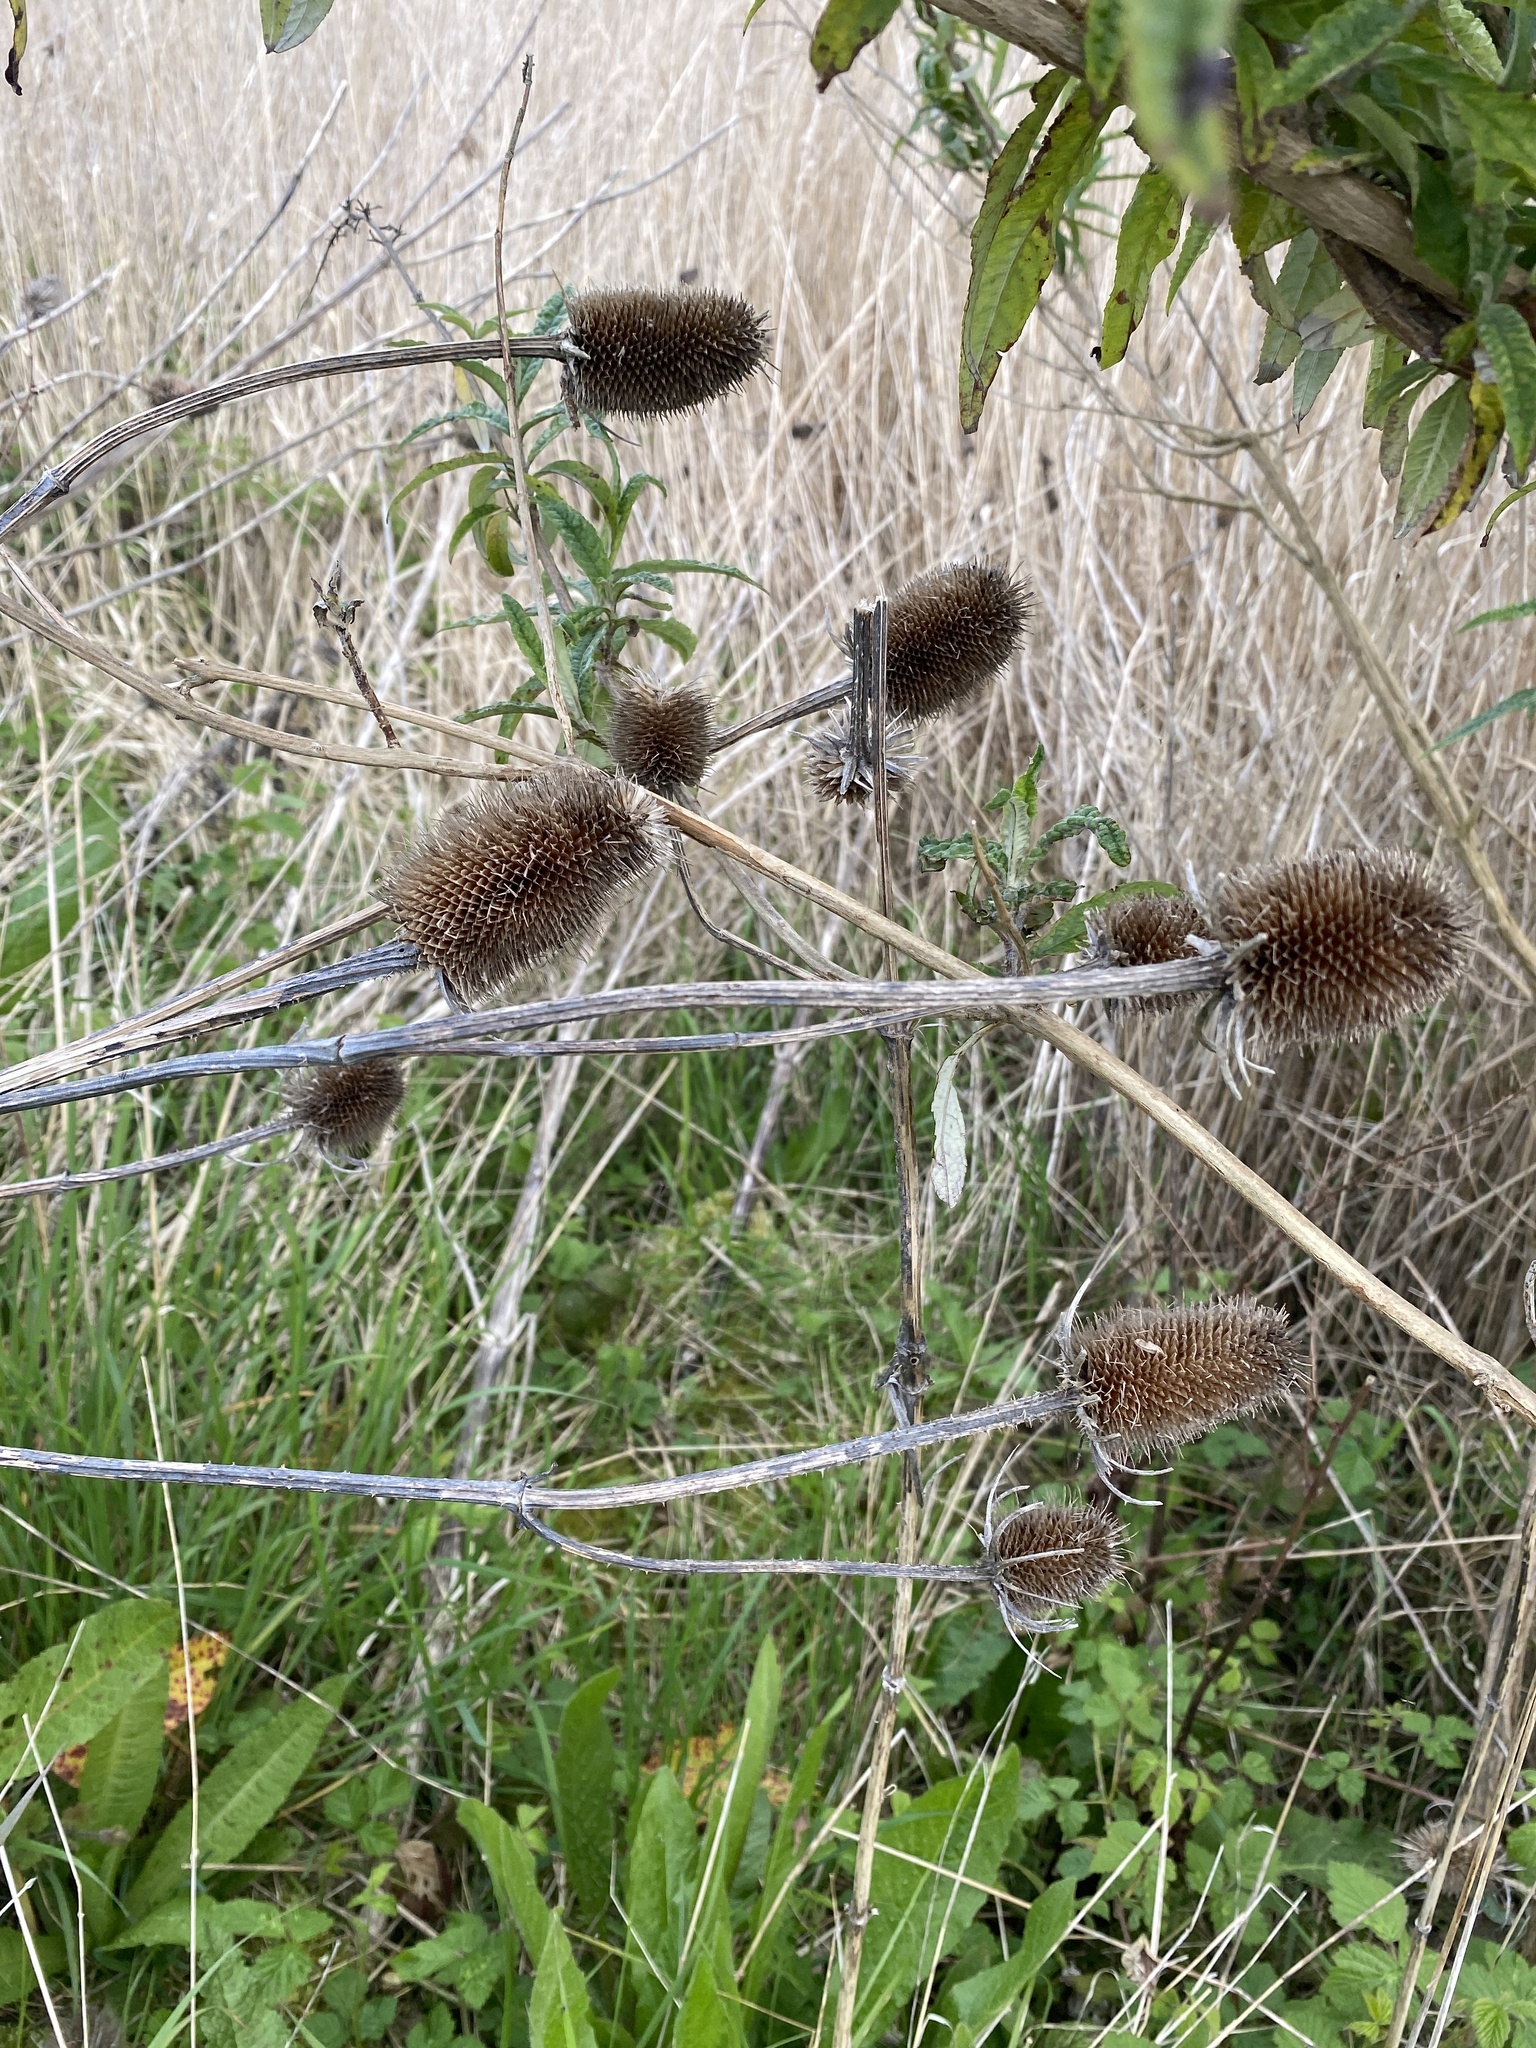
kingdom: Plantae
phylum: Tracheophyta
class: Magnoliopsida
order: Dipsacales
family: Caprifoliaceae
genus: Dipsacus
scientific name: Dipsacus fullonum
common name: Teasel
